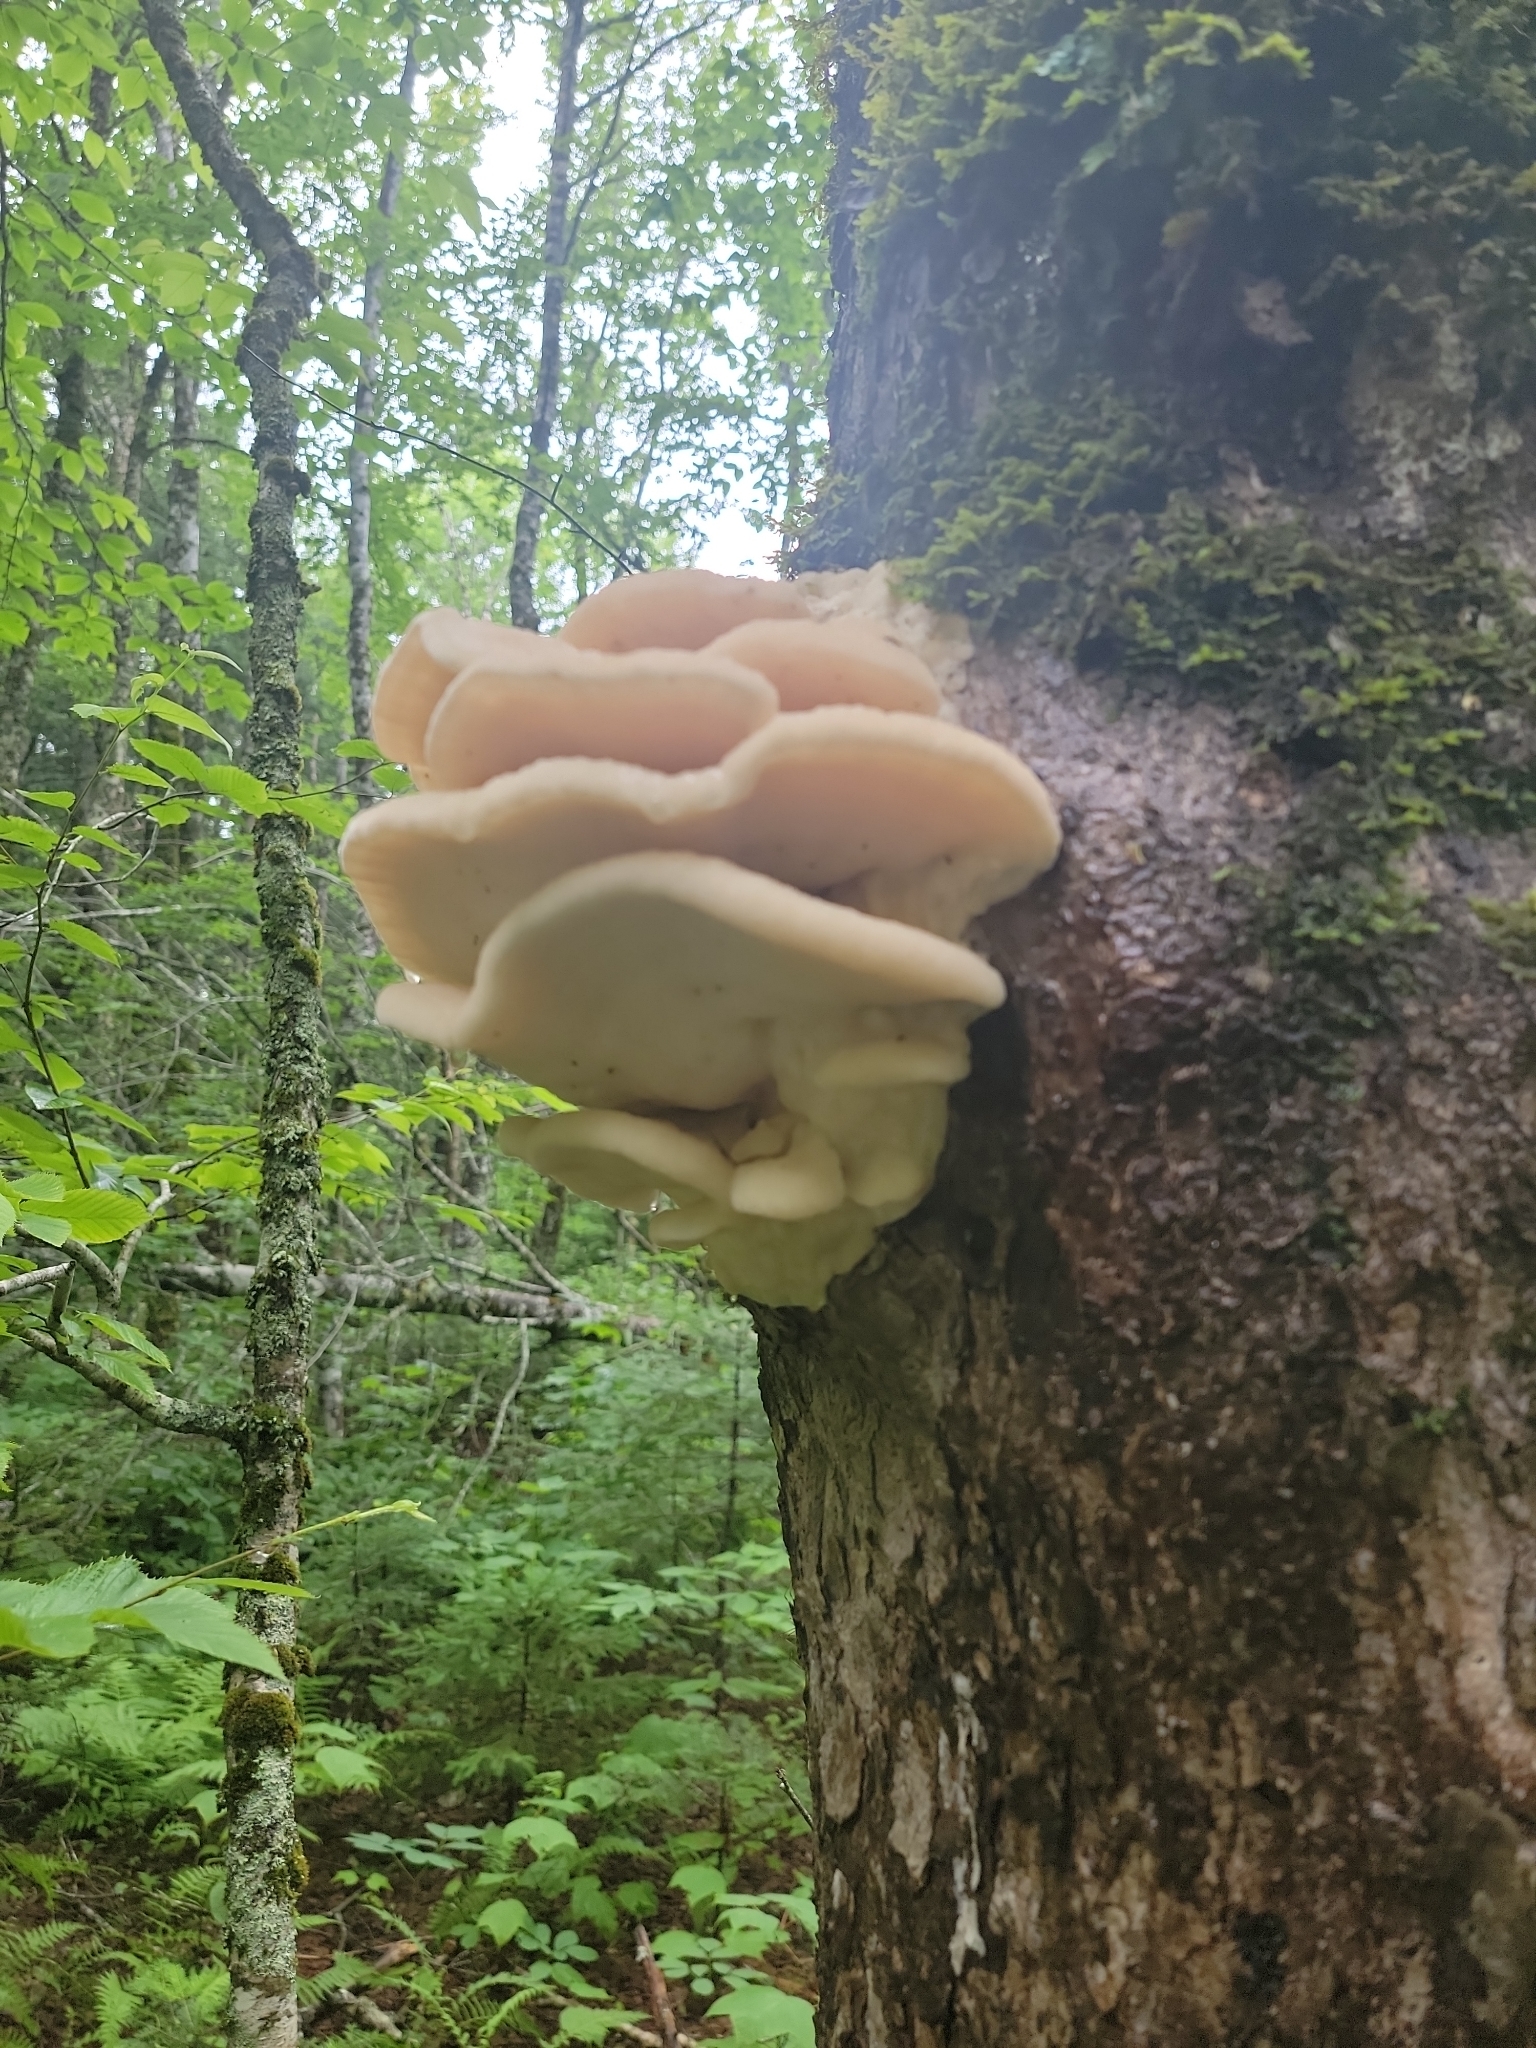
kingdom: Fungi
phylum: Basidiomycota
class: Agaricomycetes
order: Polyporales
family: Meruliaceae
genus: Climacodon
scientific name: Climacodon septentrionalis
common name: Northern tooth
